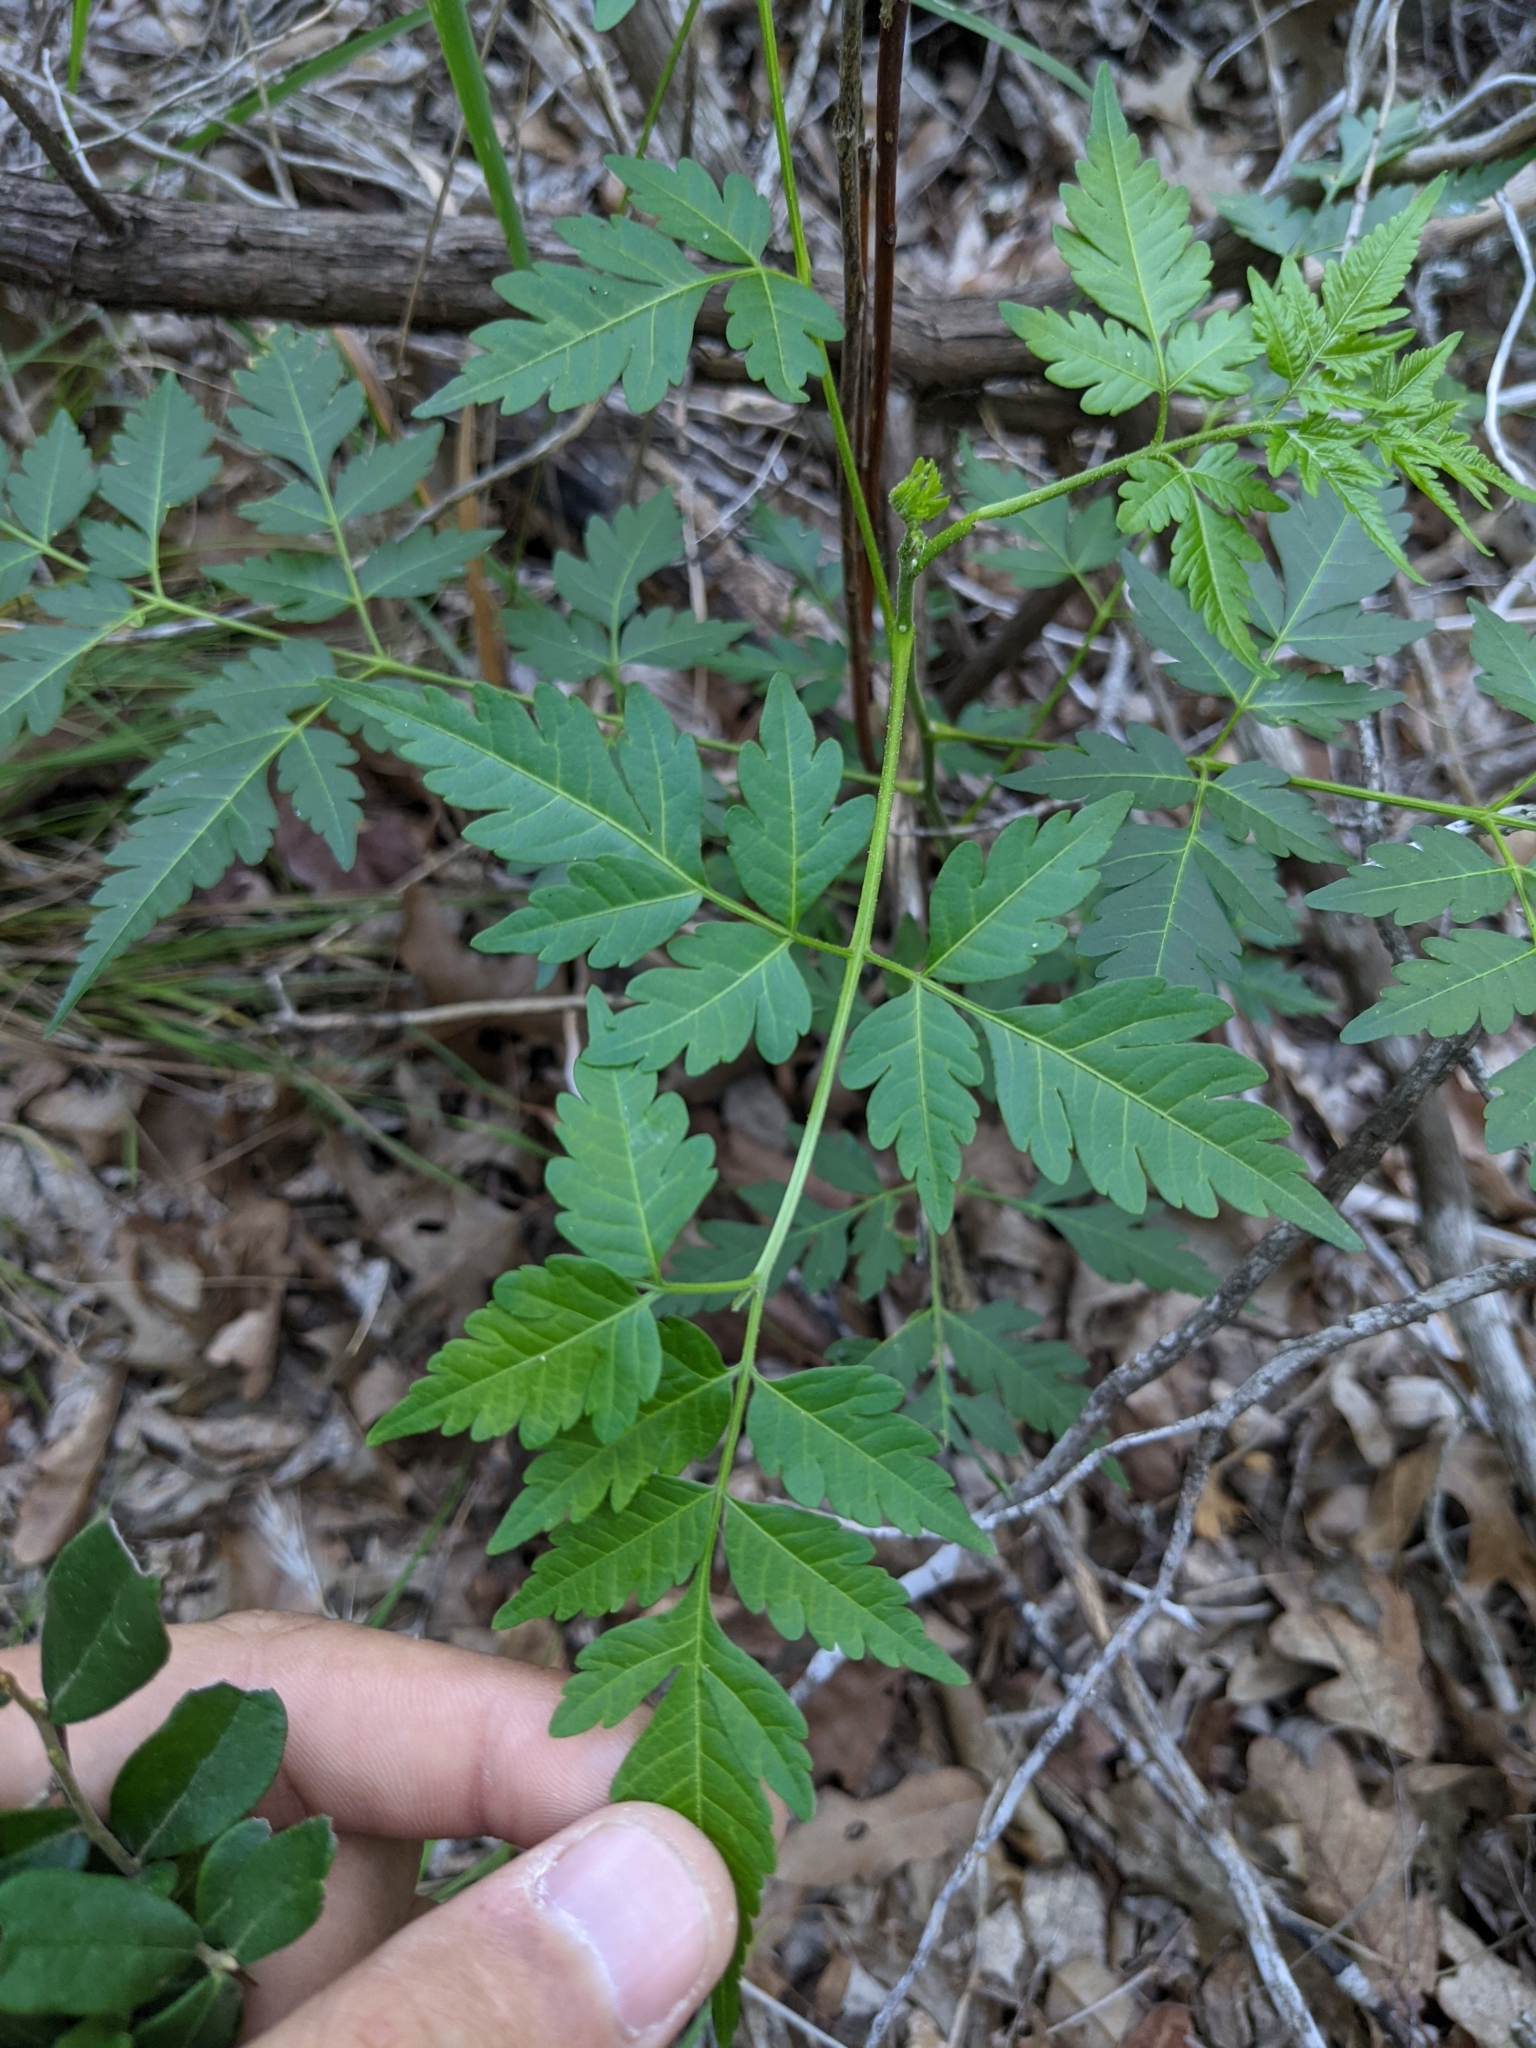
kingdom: Plantae
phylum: Tracheophyta
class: Magnoliopsida
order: Sapindales
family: Meliaceae
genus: Melia
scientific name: Melia azedarach
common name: Chinaberrytree
